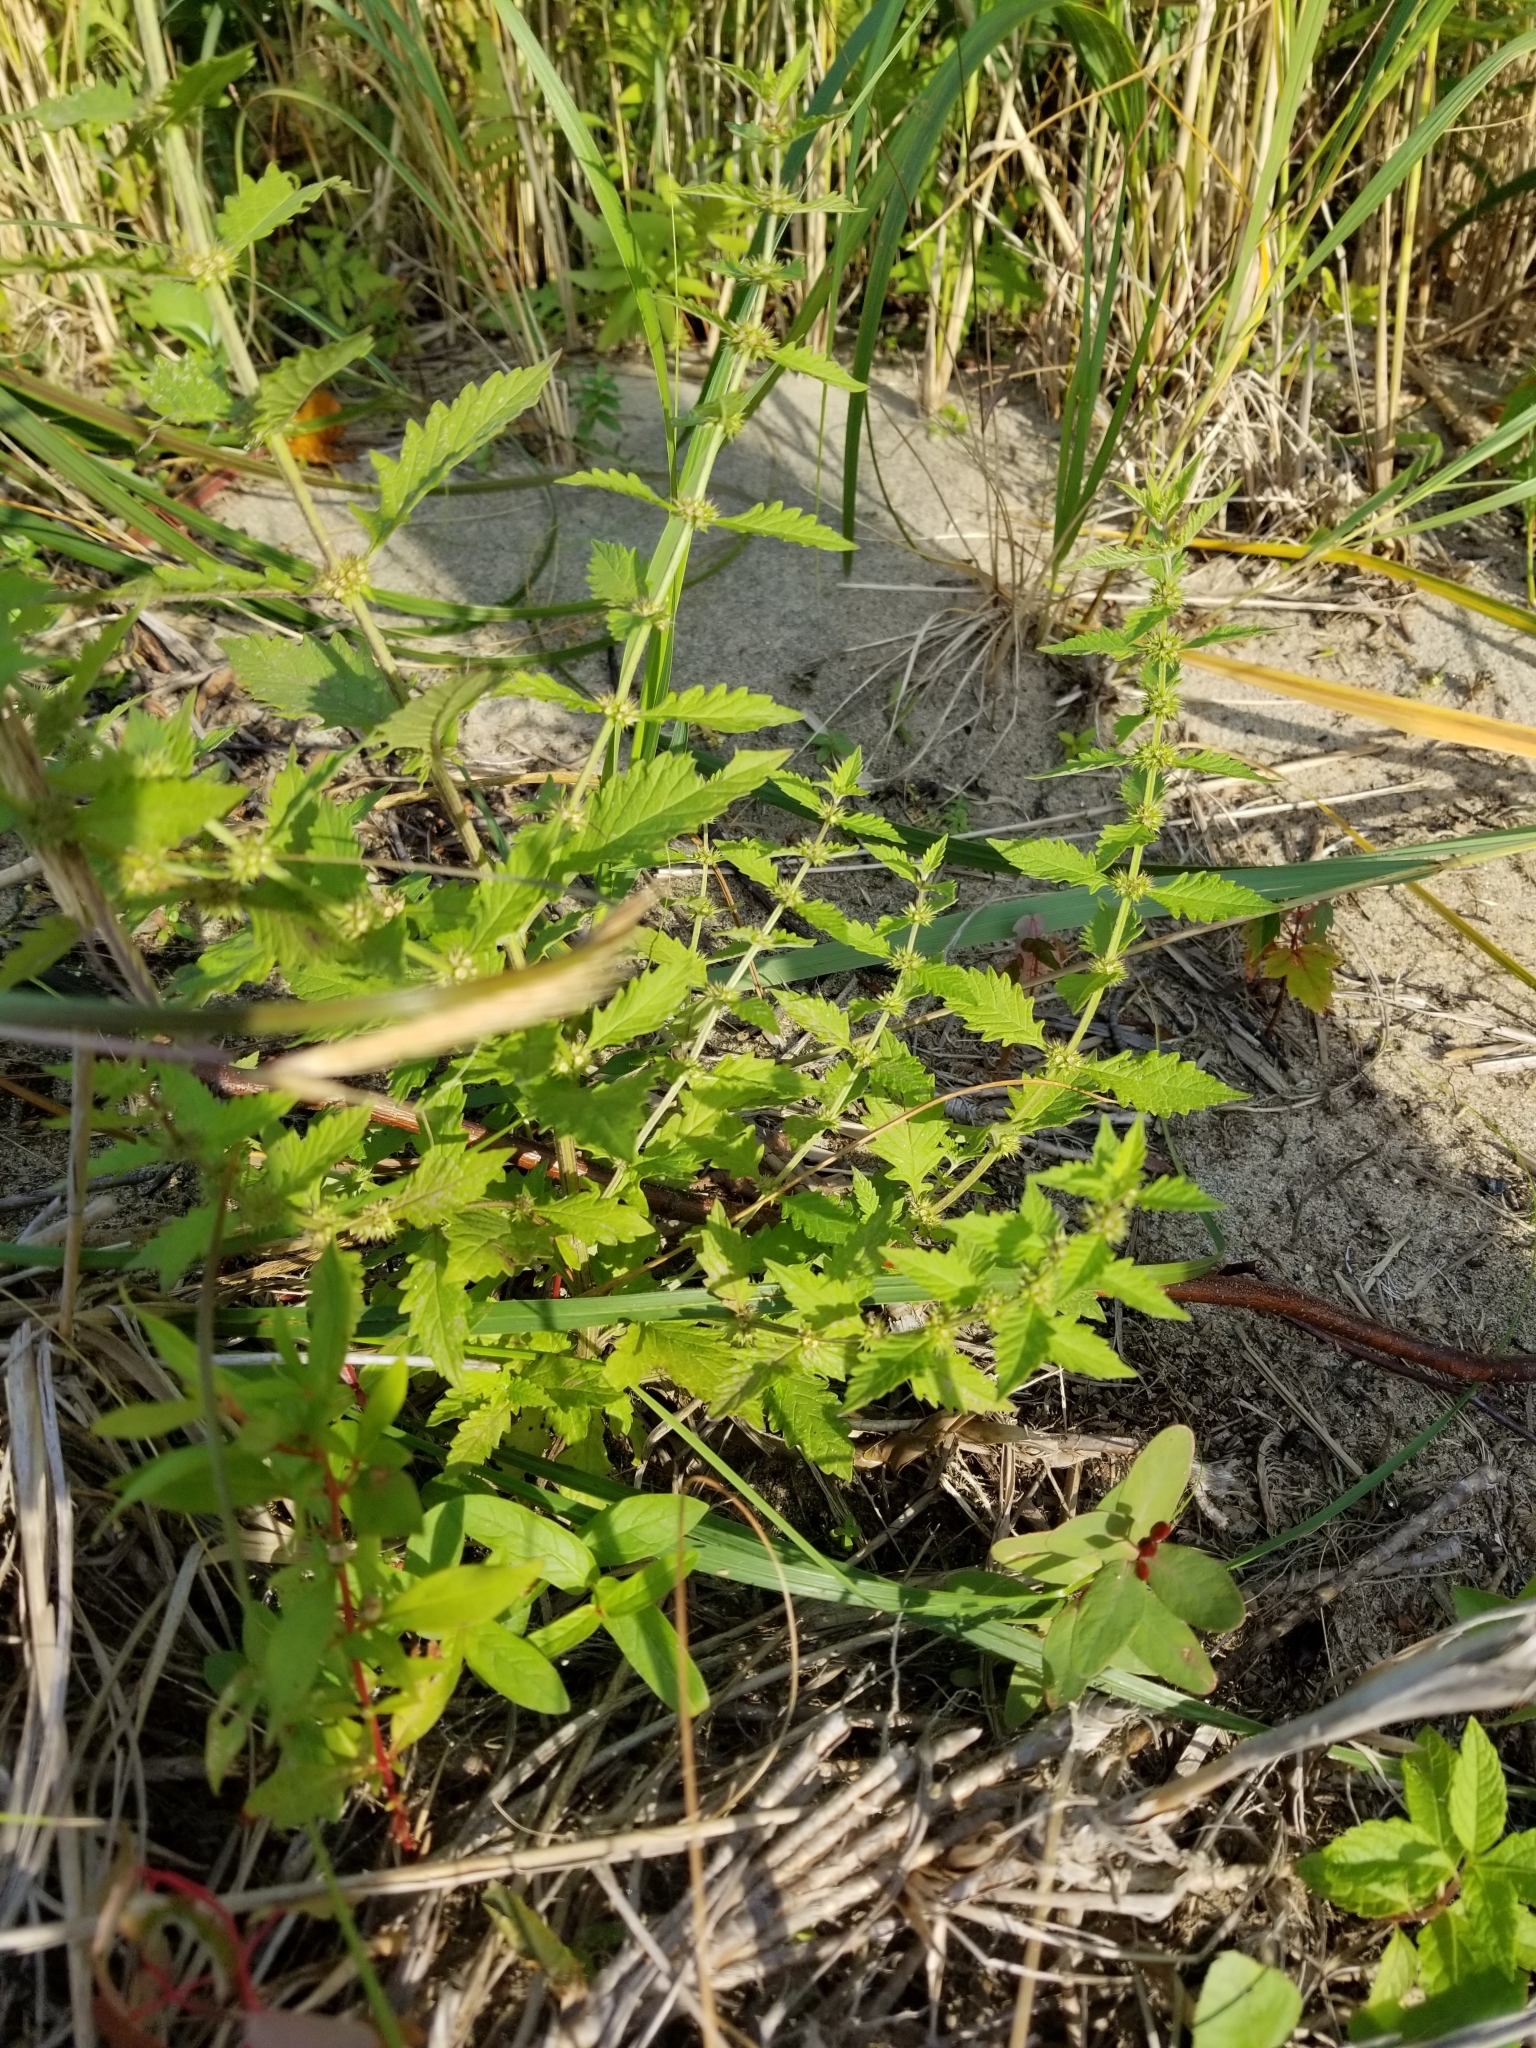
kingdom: Plantae
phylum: Tracheophyta
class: Magnoliopsida
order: Lamiales
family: Lamiaceae
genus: Lycopus
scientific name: Lycopus europaeus
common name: European bugleweed
